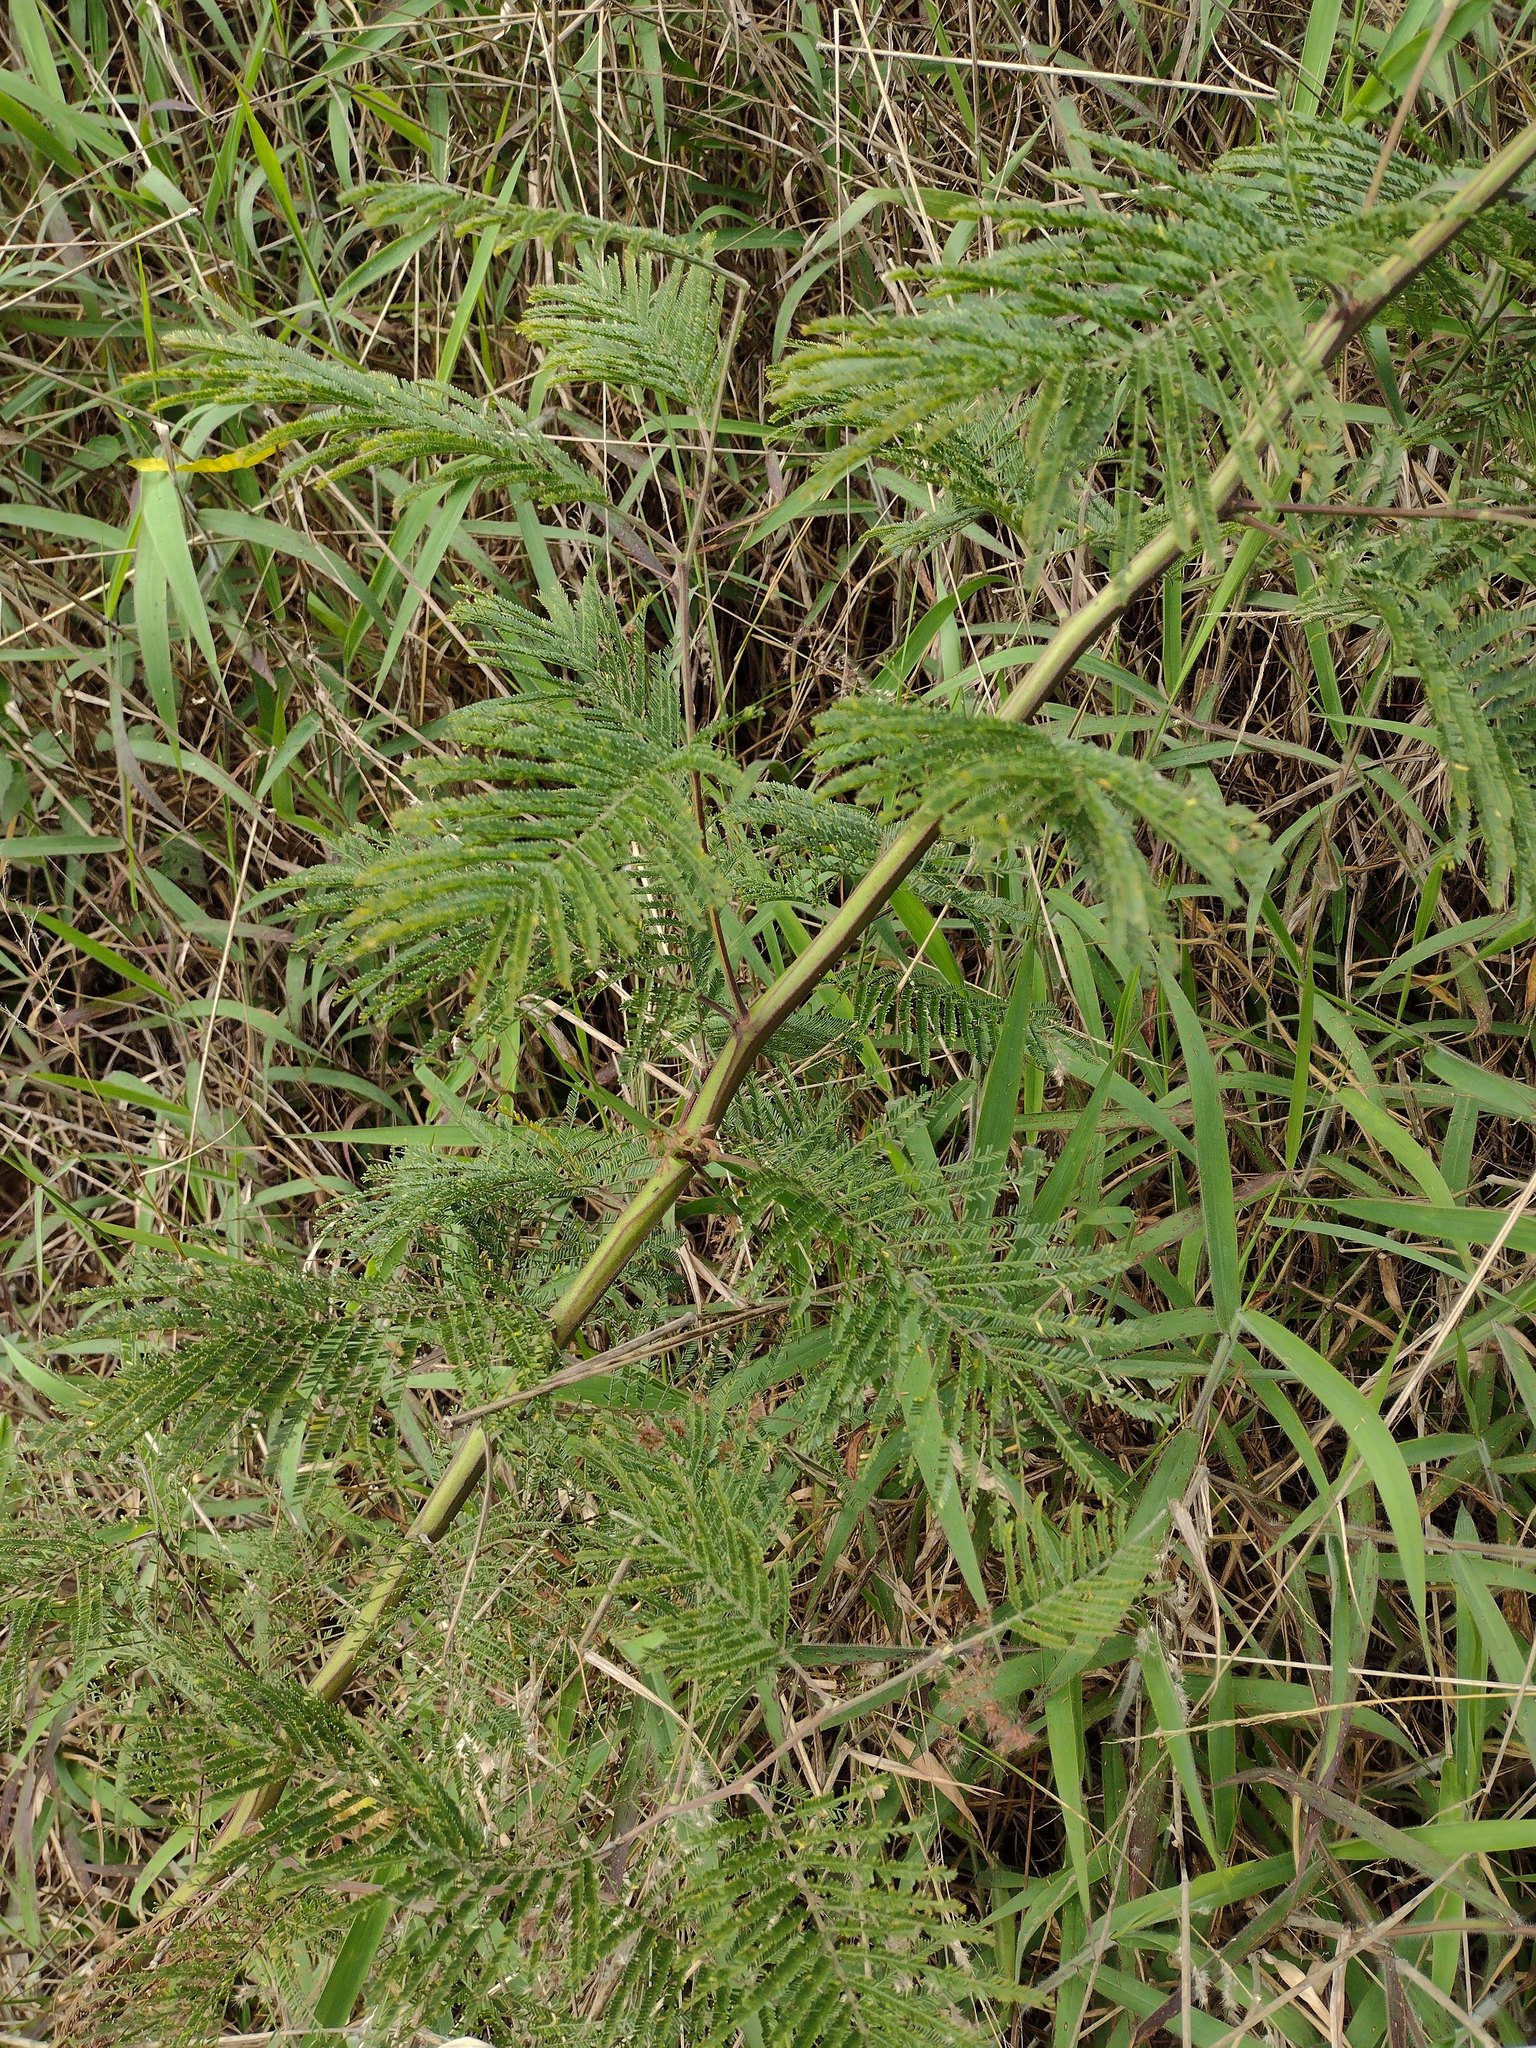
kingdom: Plantae
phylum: Tracheophyta
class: Magnoliopsida
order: Fabales
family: Fabaceae
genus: Acacia
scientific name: Acacia mearnsii
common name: Black wattle
